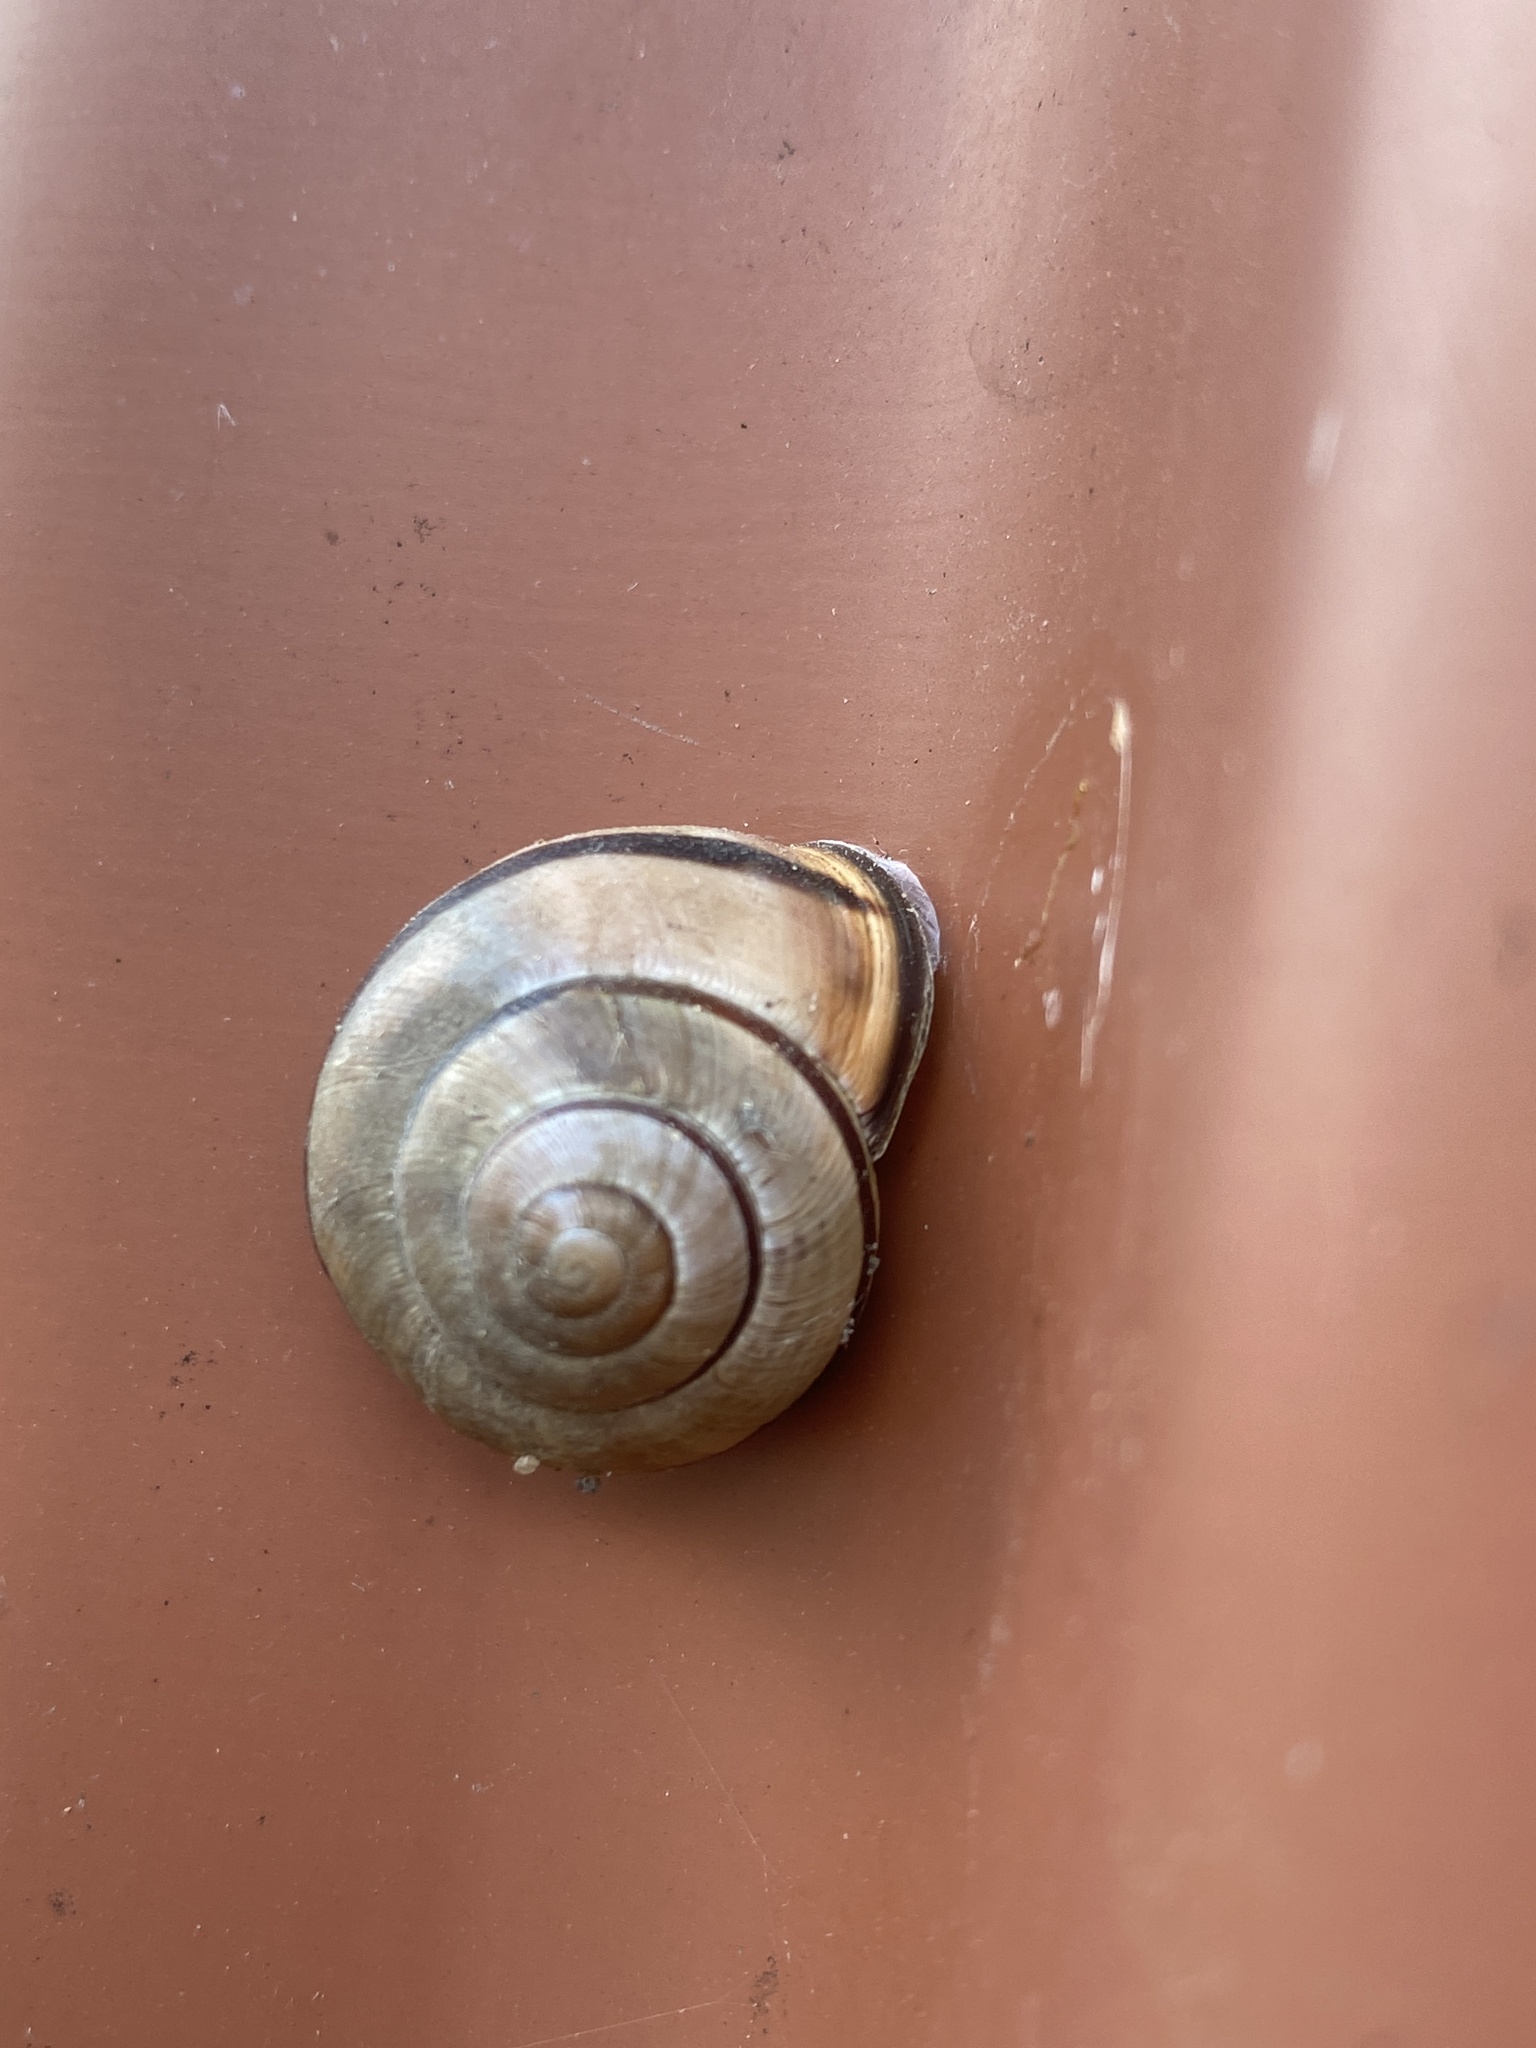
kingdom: Animalia
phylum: Mollusca
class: Gastropoda
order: Stylommatophora
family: Helicidae
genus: Cepaea
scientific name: Cepaea nemoralis
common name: Grovesnail
